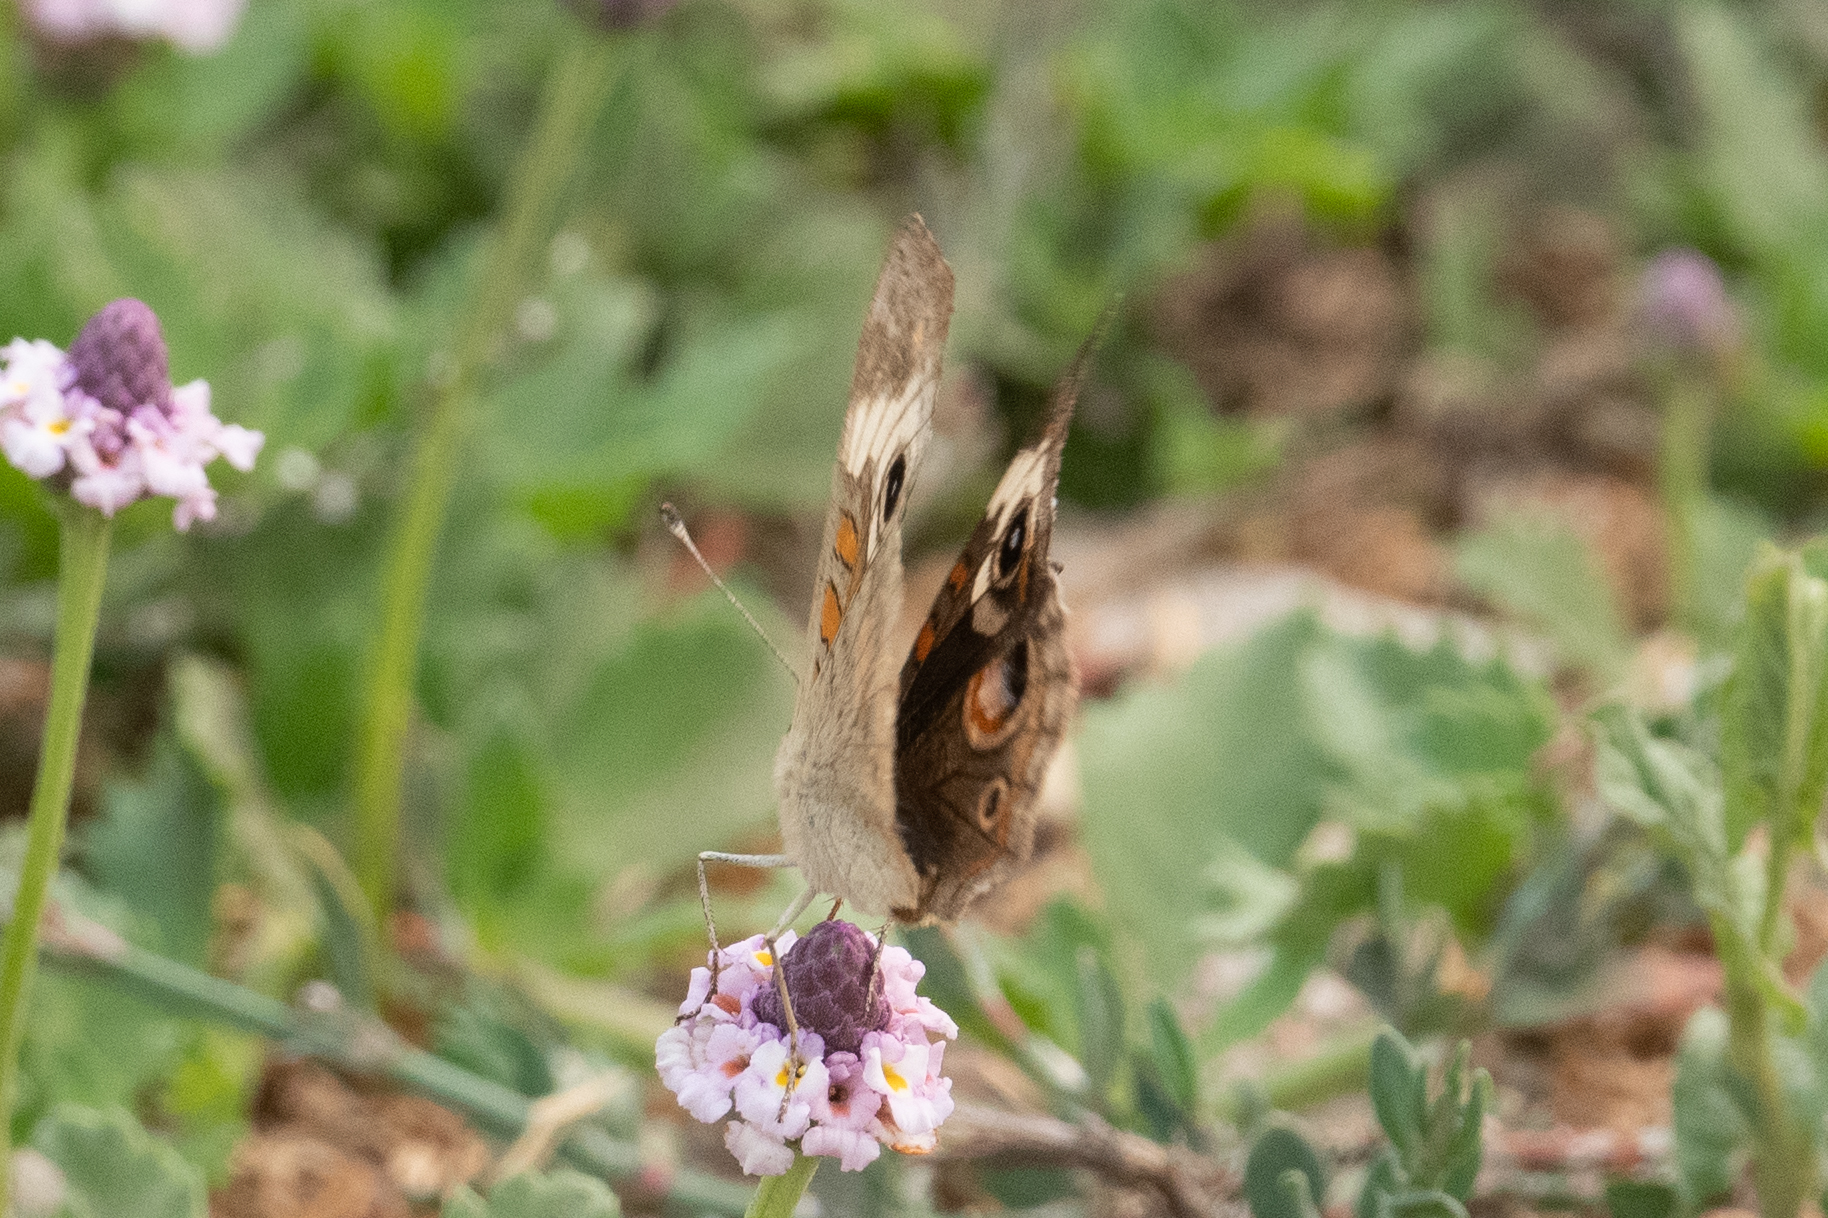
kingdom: Animalia
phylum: Arthropoda
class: Insecta
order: Lepidoptera
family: Nymphalidae
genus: Junonia
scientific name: Junonia grisea
